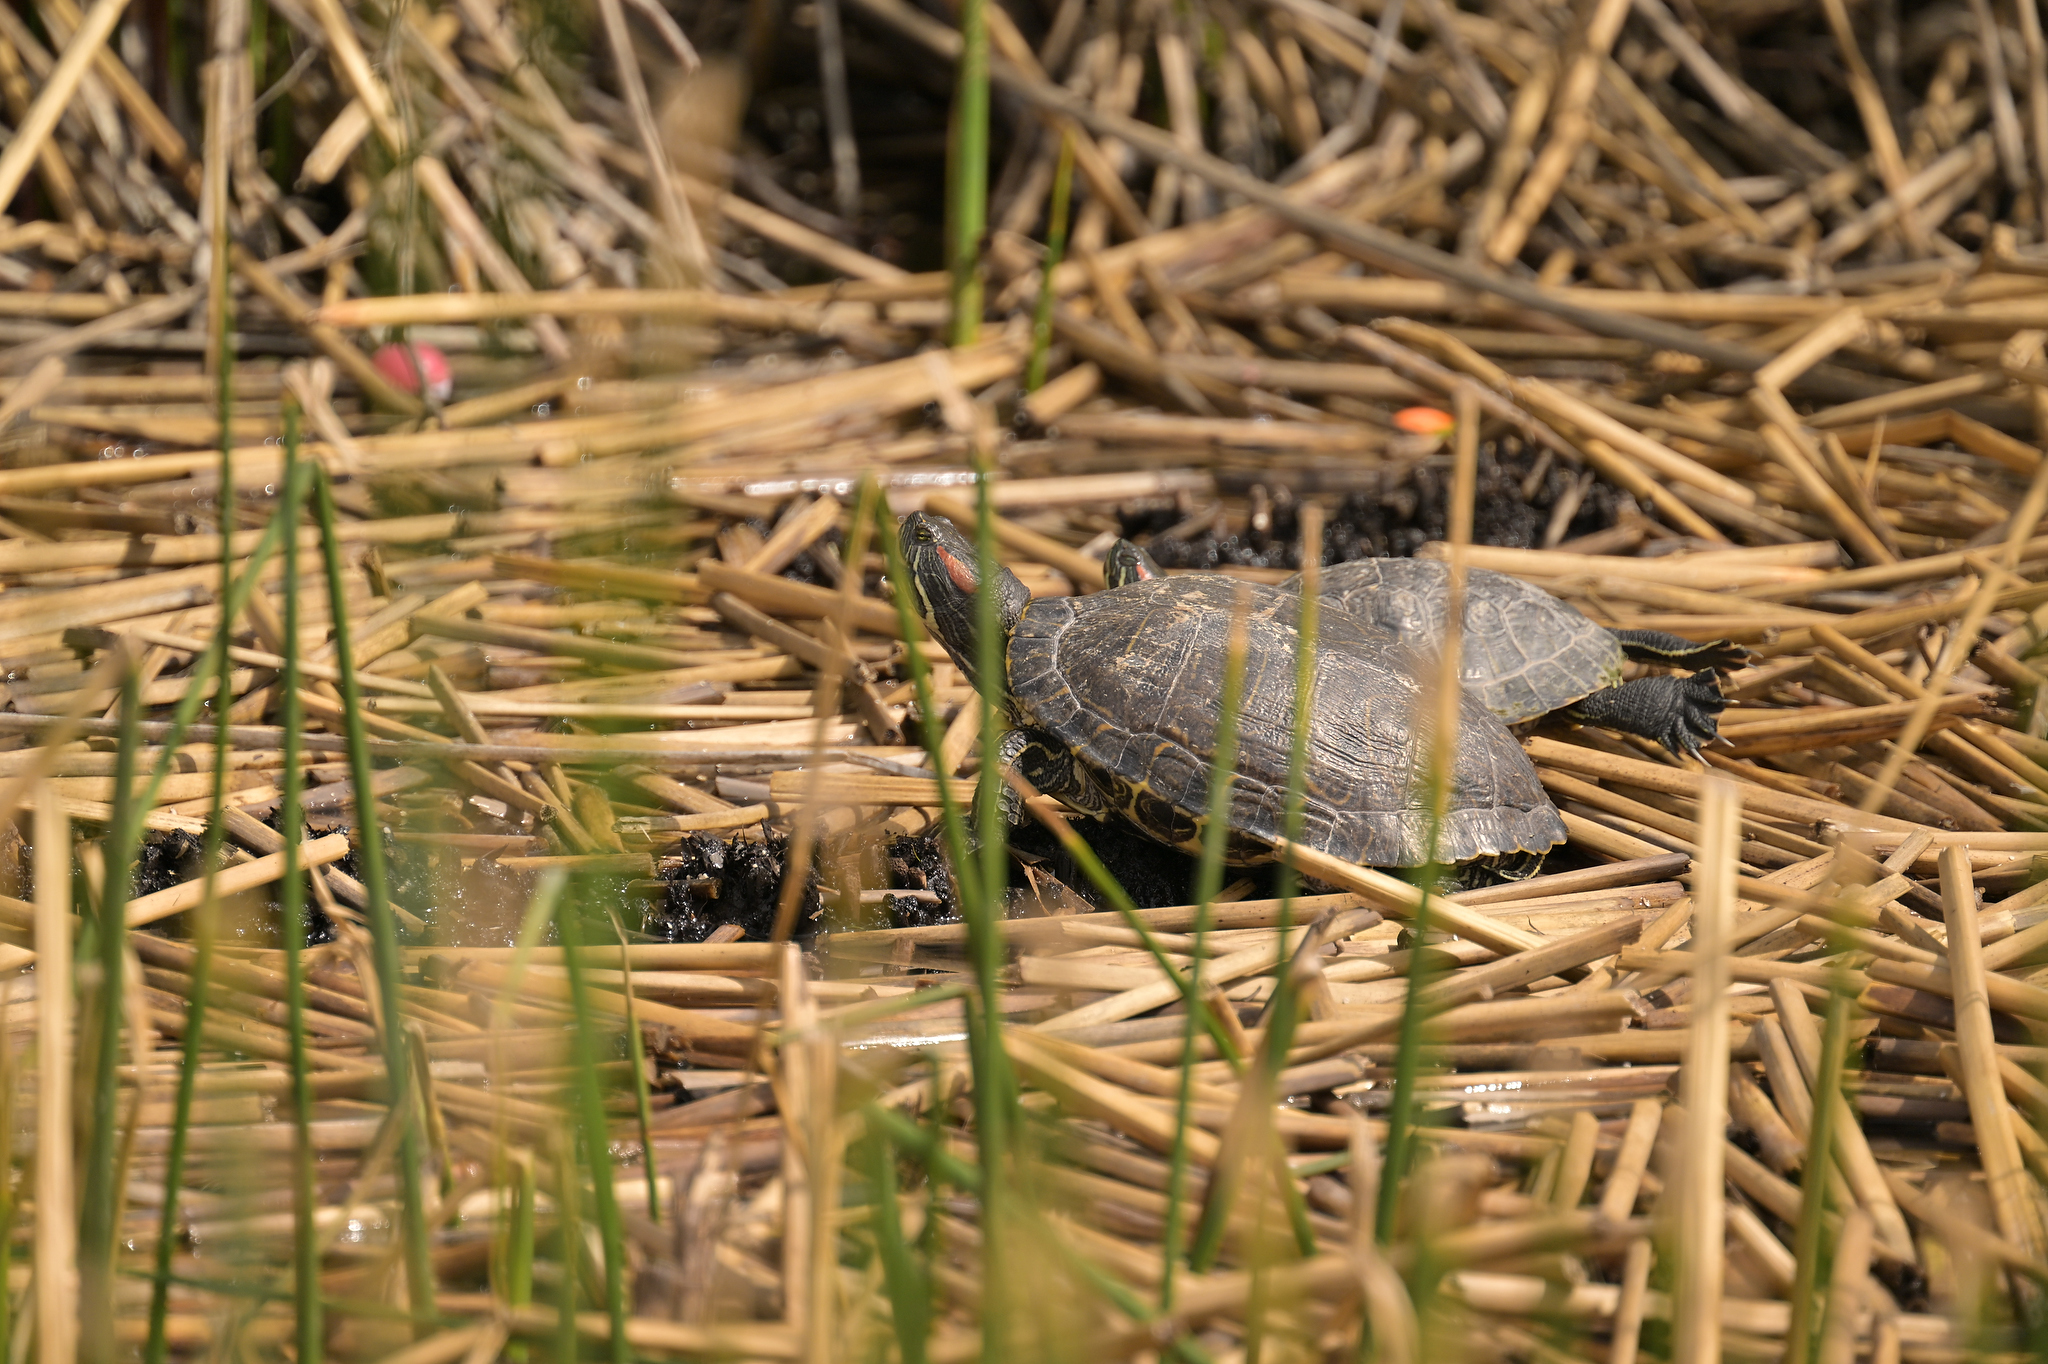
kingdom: Animalia
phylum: Chordata
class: Testudines
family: Emydidae
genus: Trachemys
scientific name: Trachemys scripta
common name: Slider
